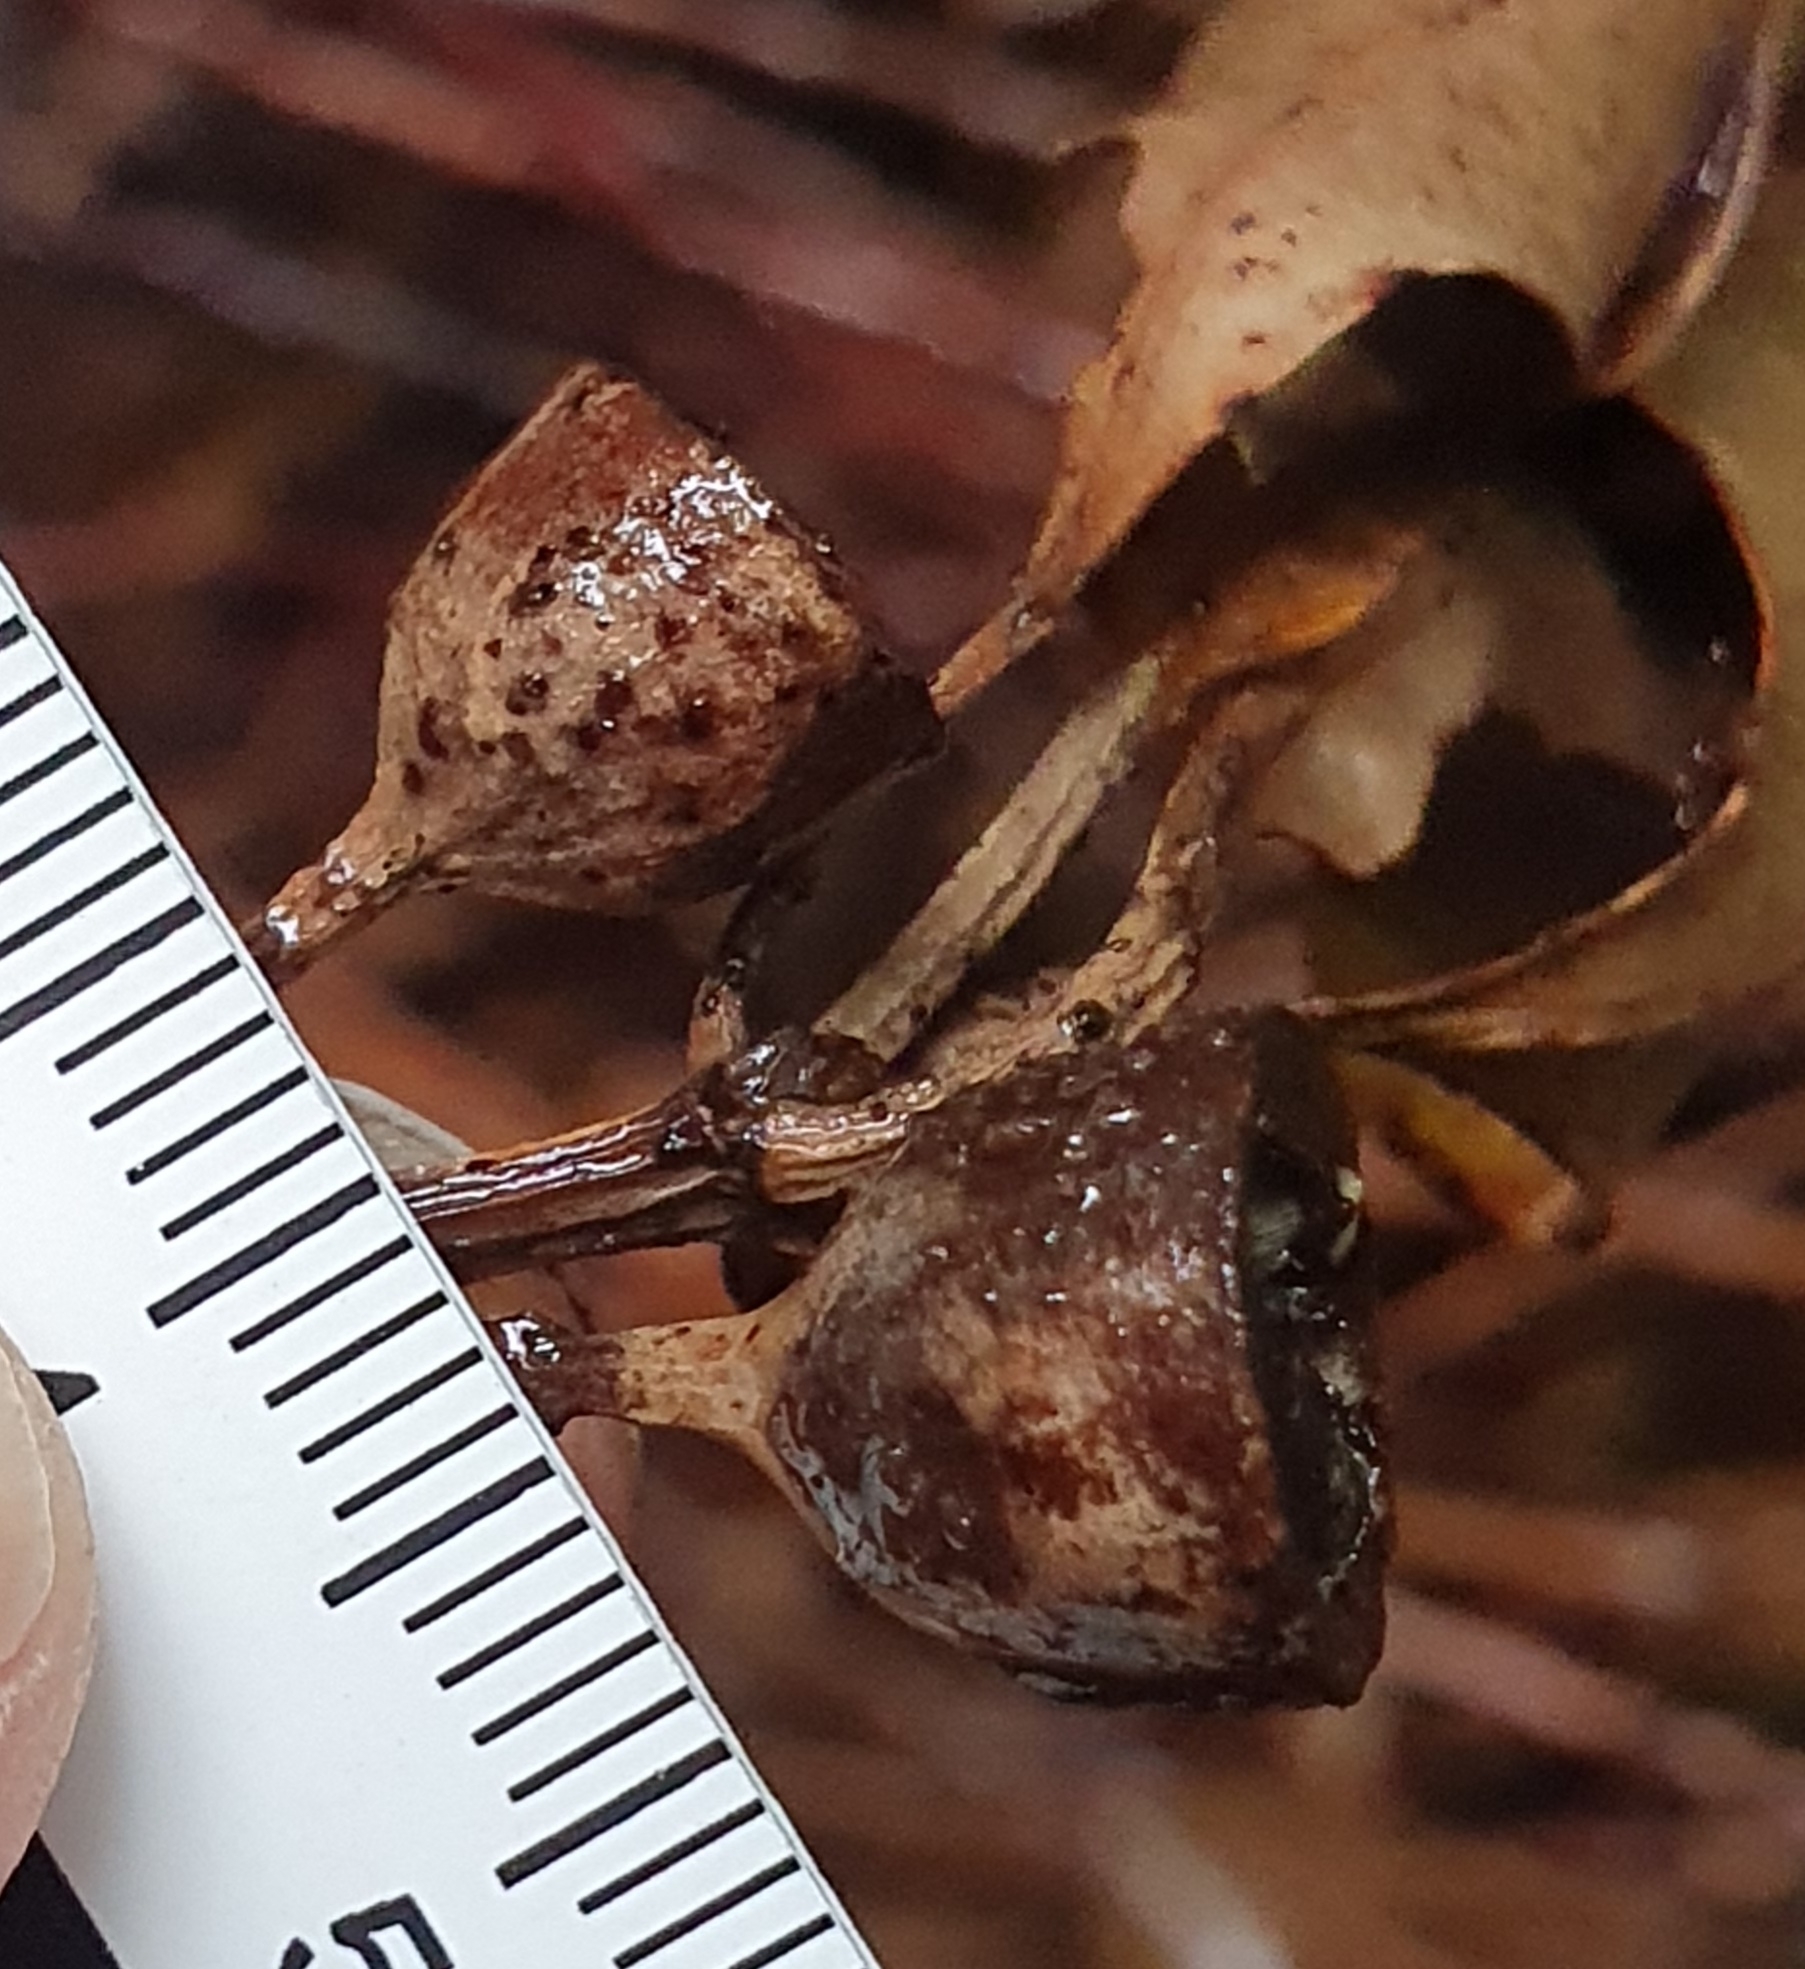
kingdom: Plantae
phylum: Tracheophyta
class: Magnoliopsida
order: Myrtales
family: Myrtaceae
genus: Eucalyptus
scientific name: Eucalyptus microcorys
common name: Tallowwood
